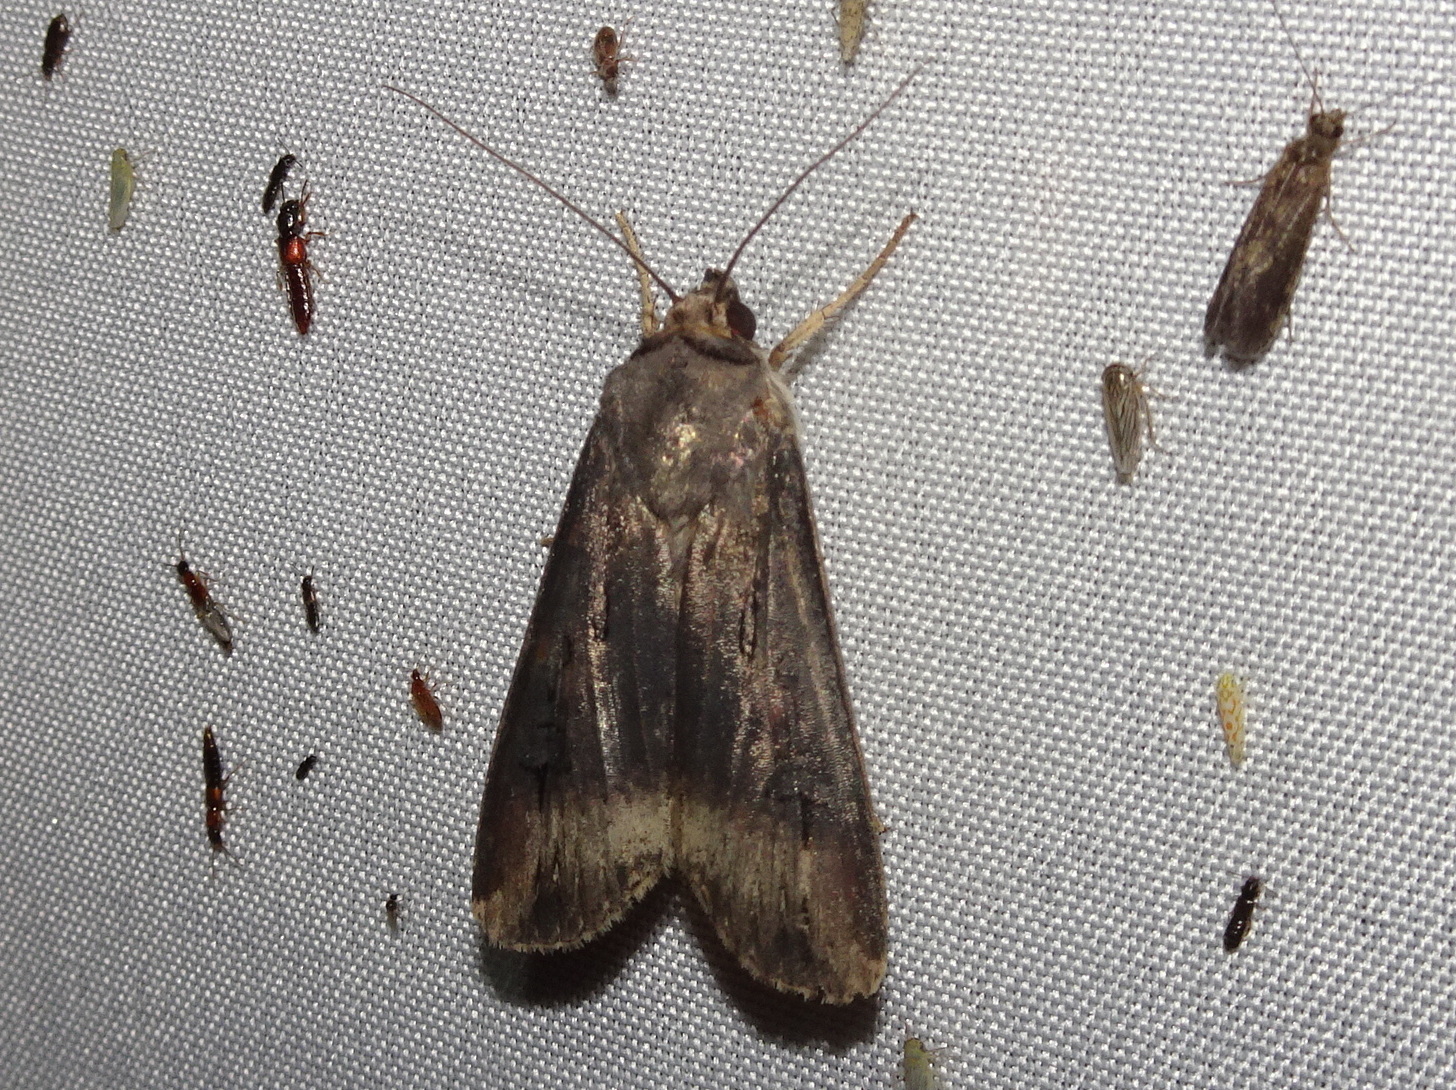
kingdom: Animalia
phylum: Arthropoda
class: Insecta
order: Lepidoptera
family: Noctuidae
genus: Agrotis
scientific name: Agrotis ipsilon
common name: Dark sword-grass
